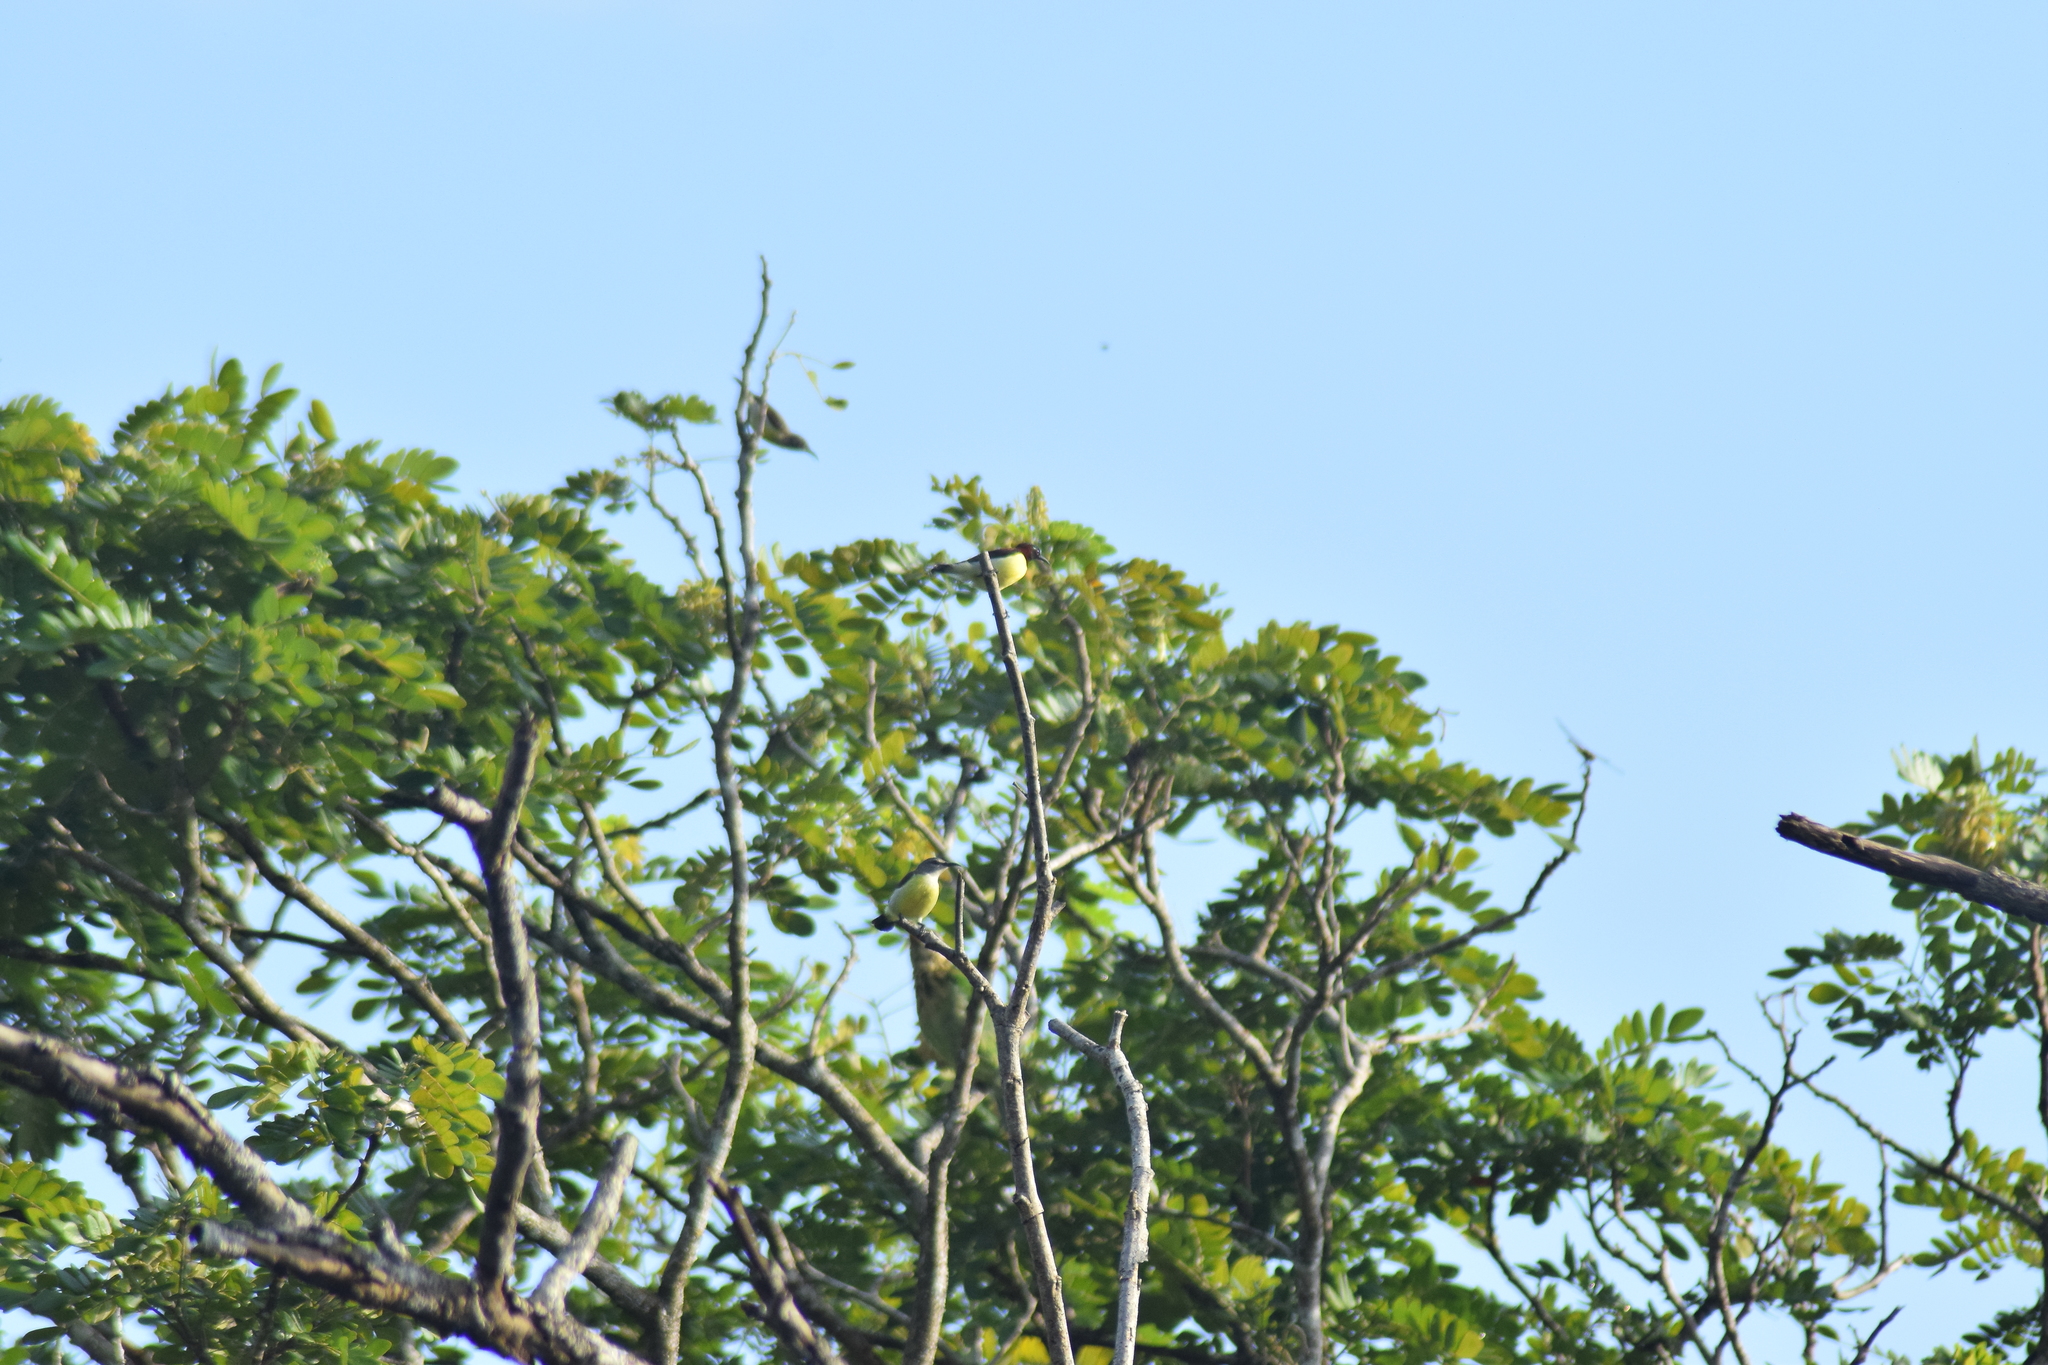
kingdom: Animalia
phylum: Chordata
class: Aves
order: Passeriformes
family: Nectariniidae
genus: Leptocoma
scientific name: Leptocoma zeylonica
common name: Purple-rumped sunbird
